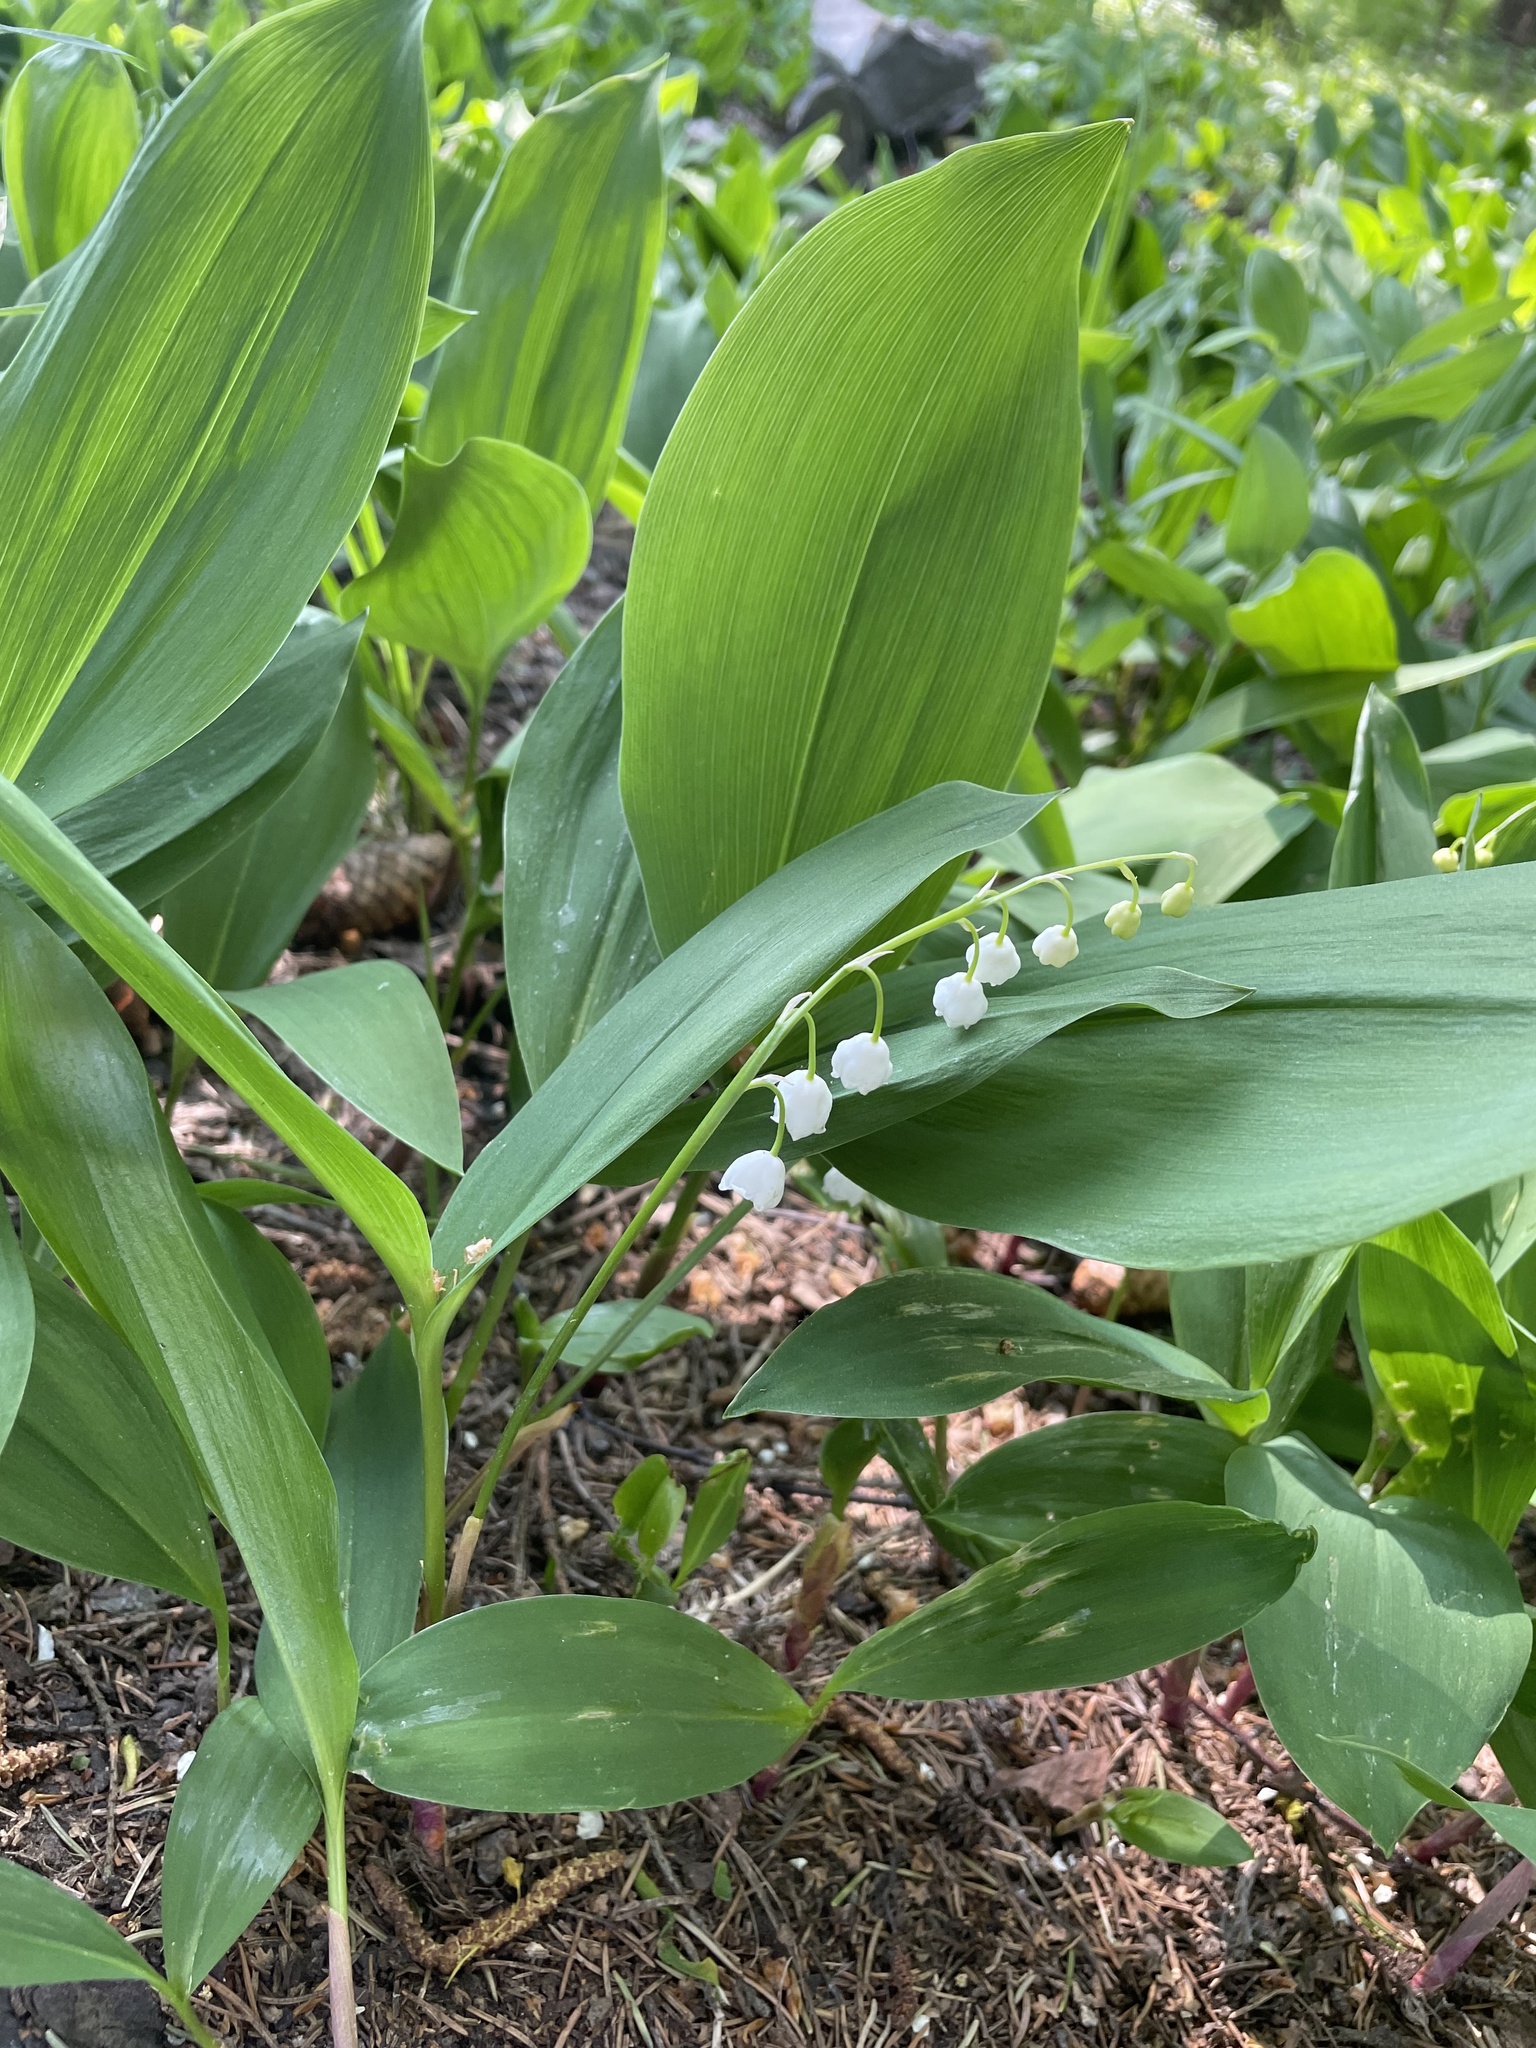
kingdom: Plantae
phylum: Tracheophyta
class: Liliopsida
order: Asparagales
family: Asparagaceae
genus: Convallaria
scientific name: Convallaria majalis
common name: Lily-of-the-valley
